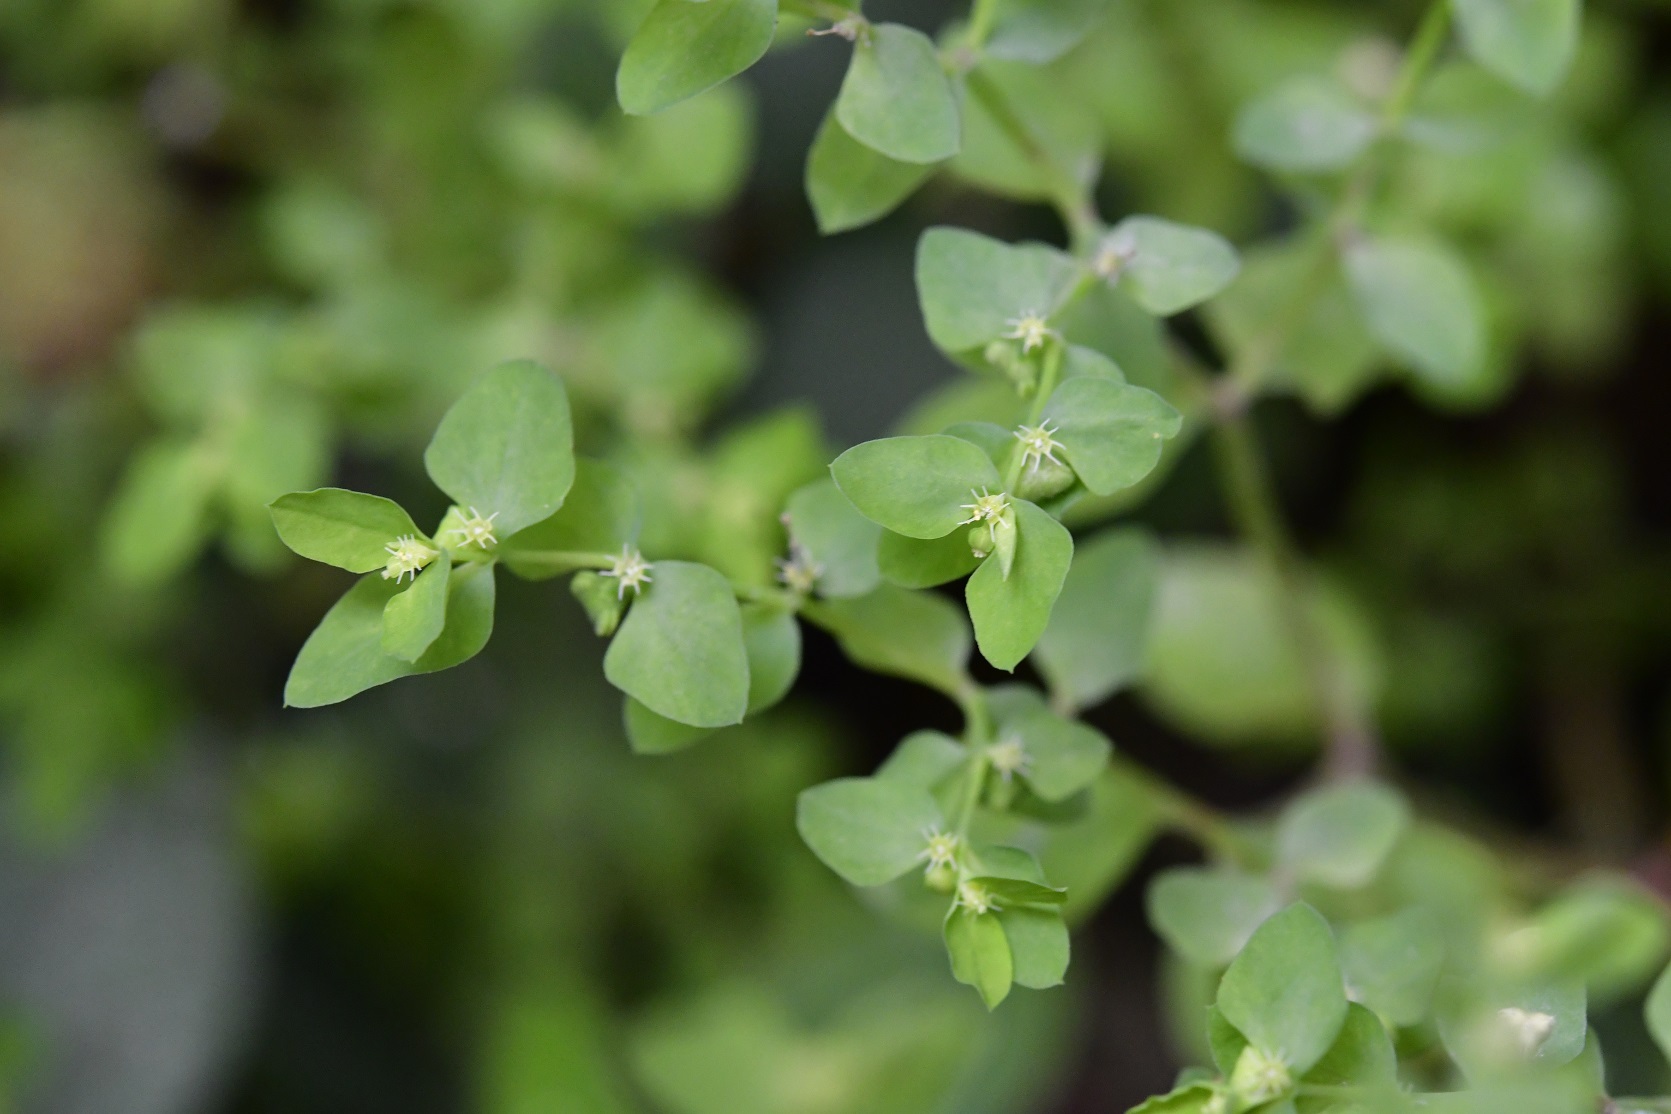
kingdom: Plantae
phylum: Tracheophyta
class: Magnoliopsida
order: Malpighiales
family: Euphorbiaceae
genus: Euphorbia
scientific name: Euphorbia peplus
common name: Petty spurge
